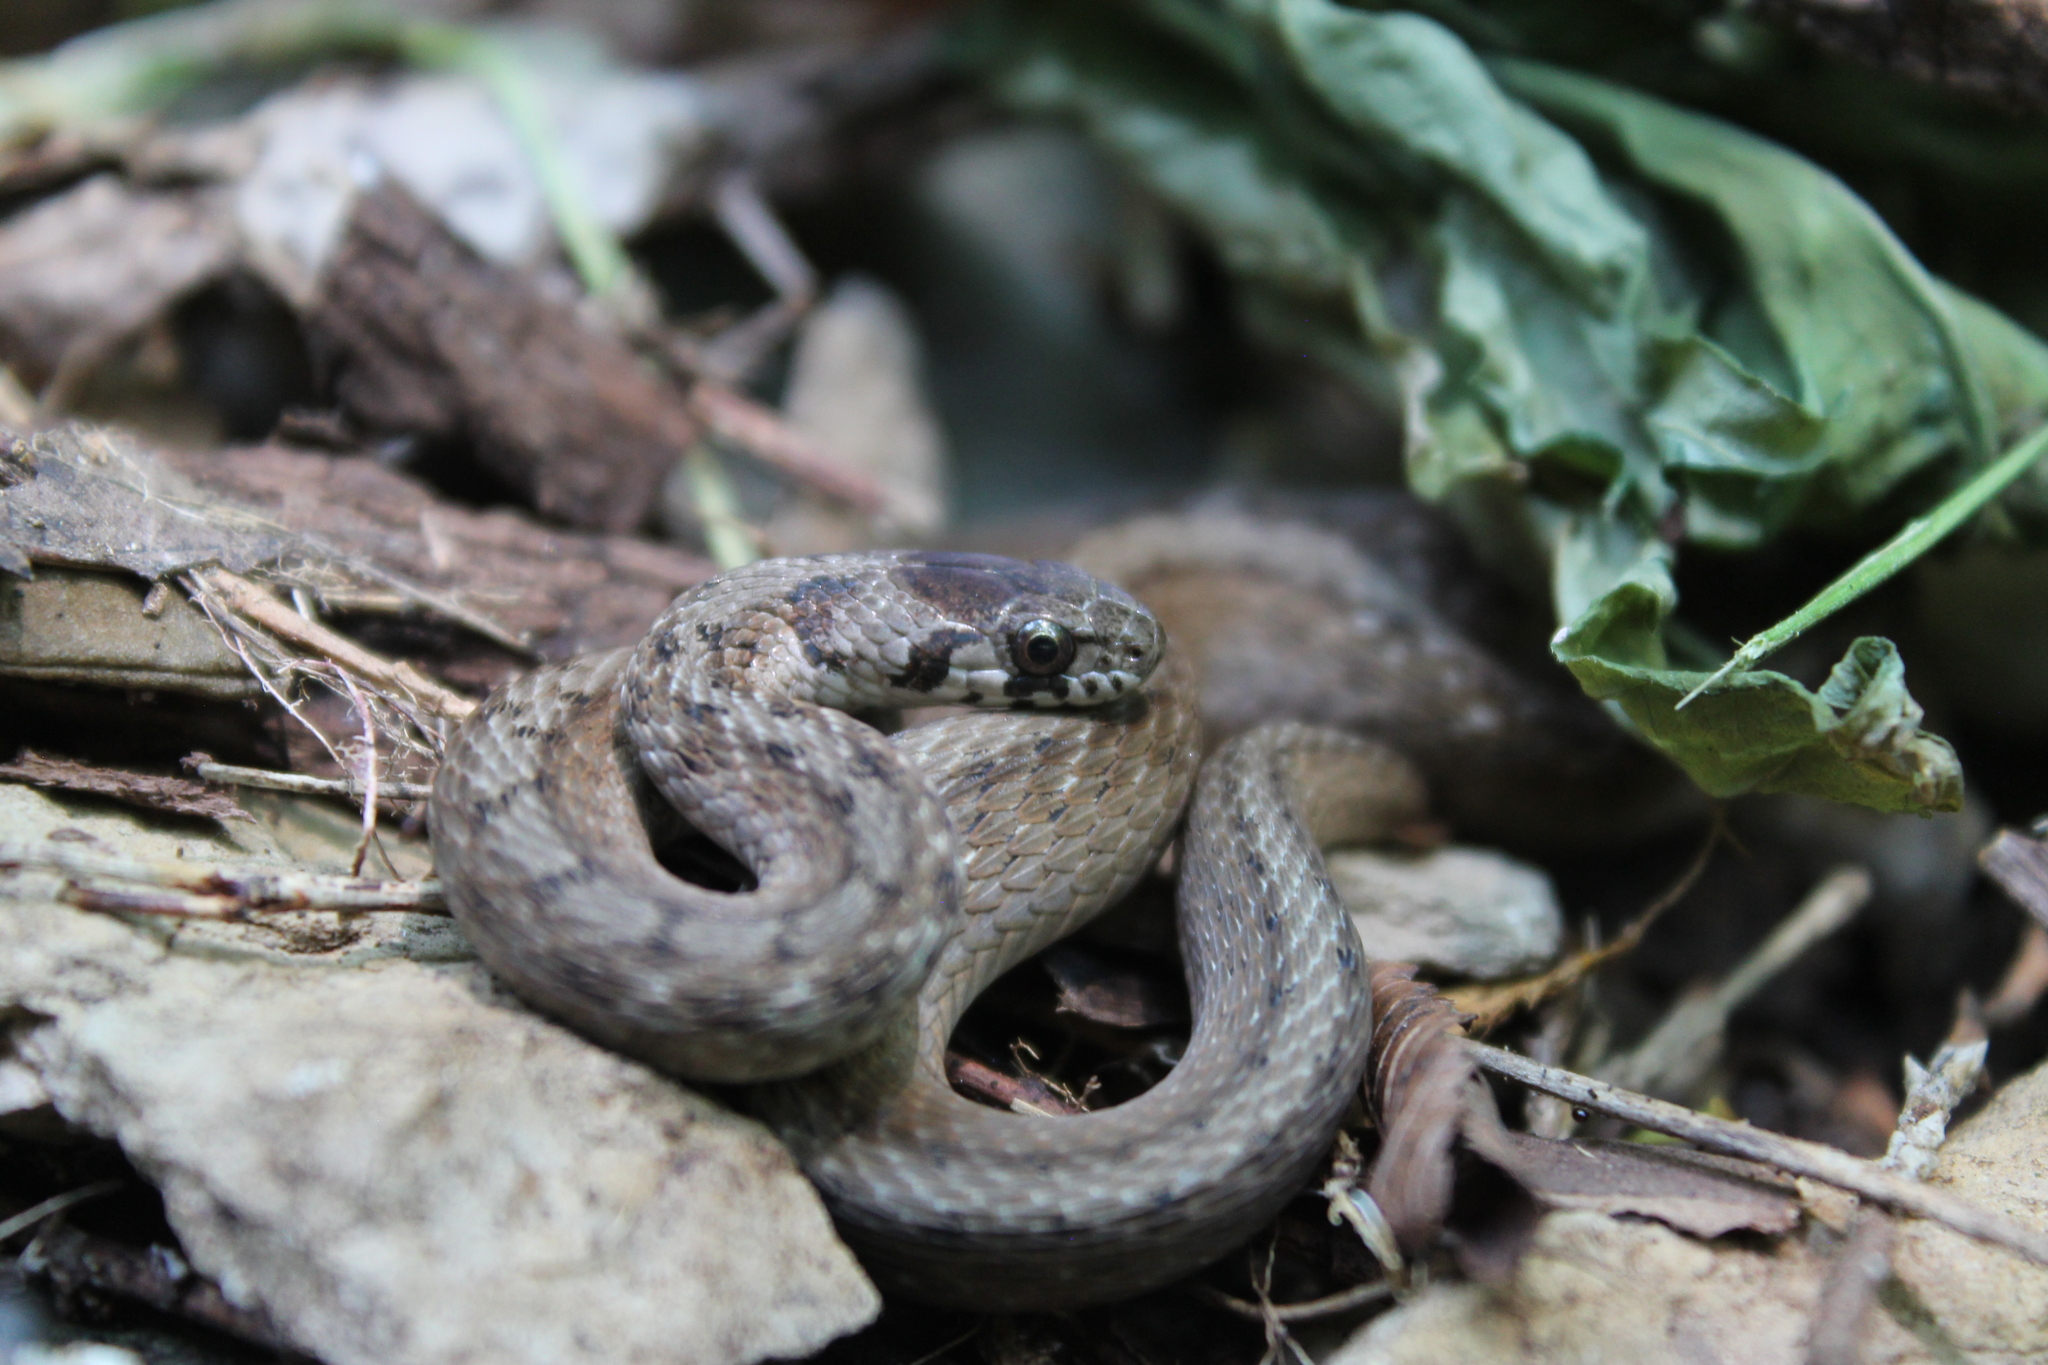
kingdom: Animalia
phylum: Chordata
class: Squamata
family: Colubridae
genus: Storeria
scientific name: Storeria dekayi
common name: (dekay’s) brown snake
